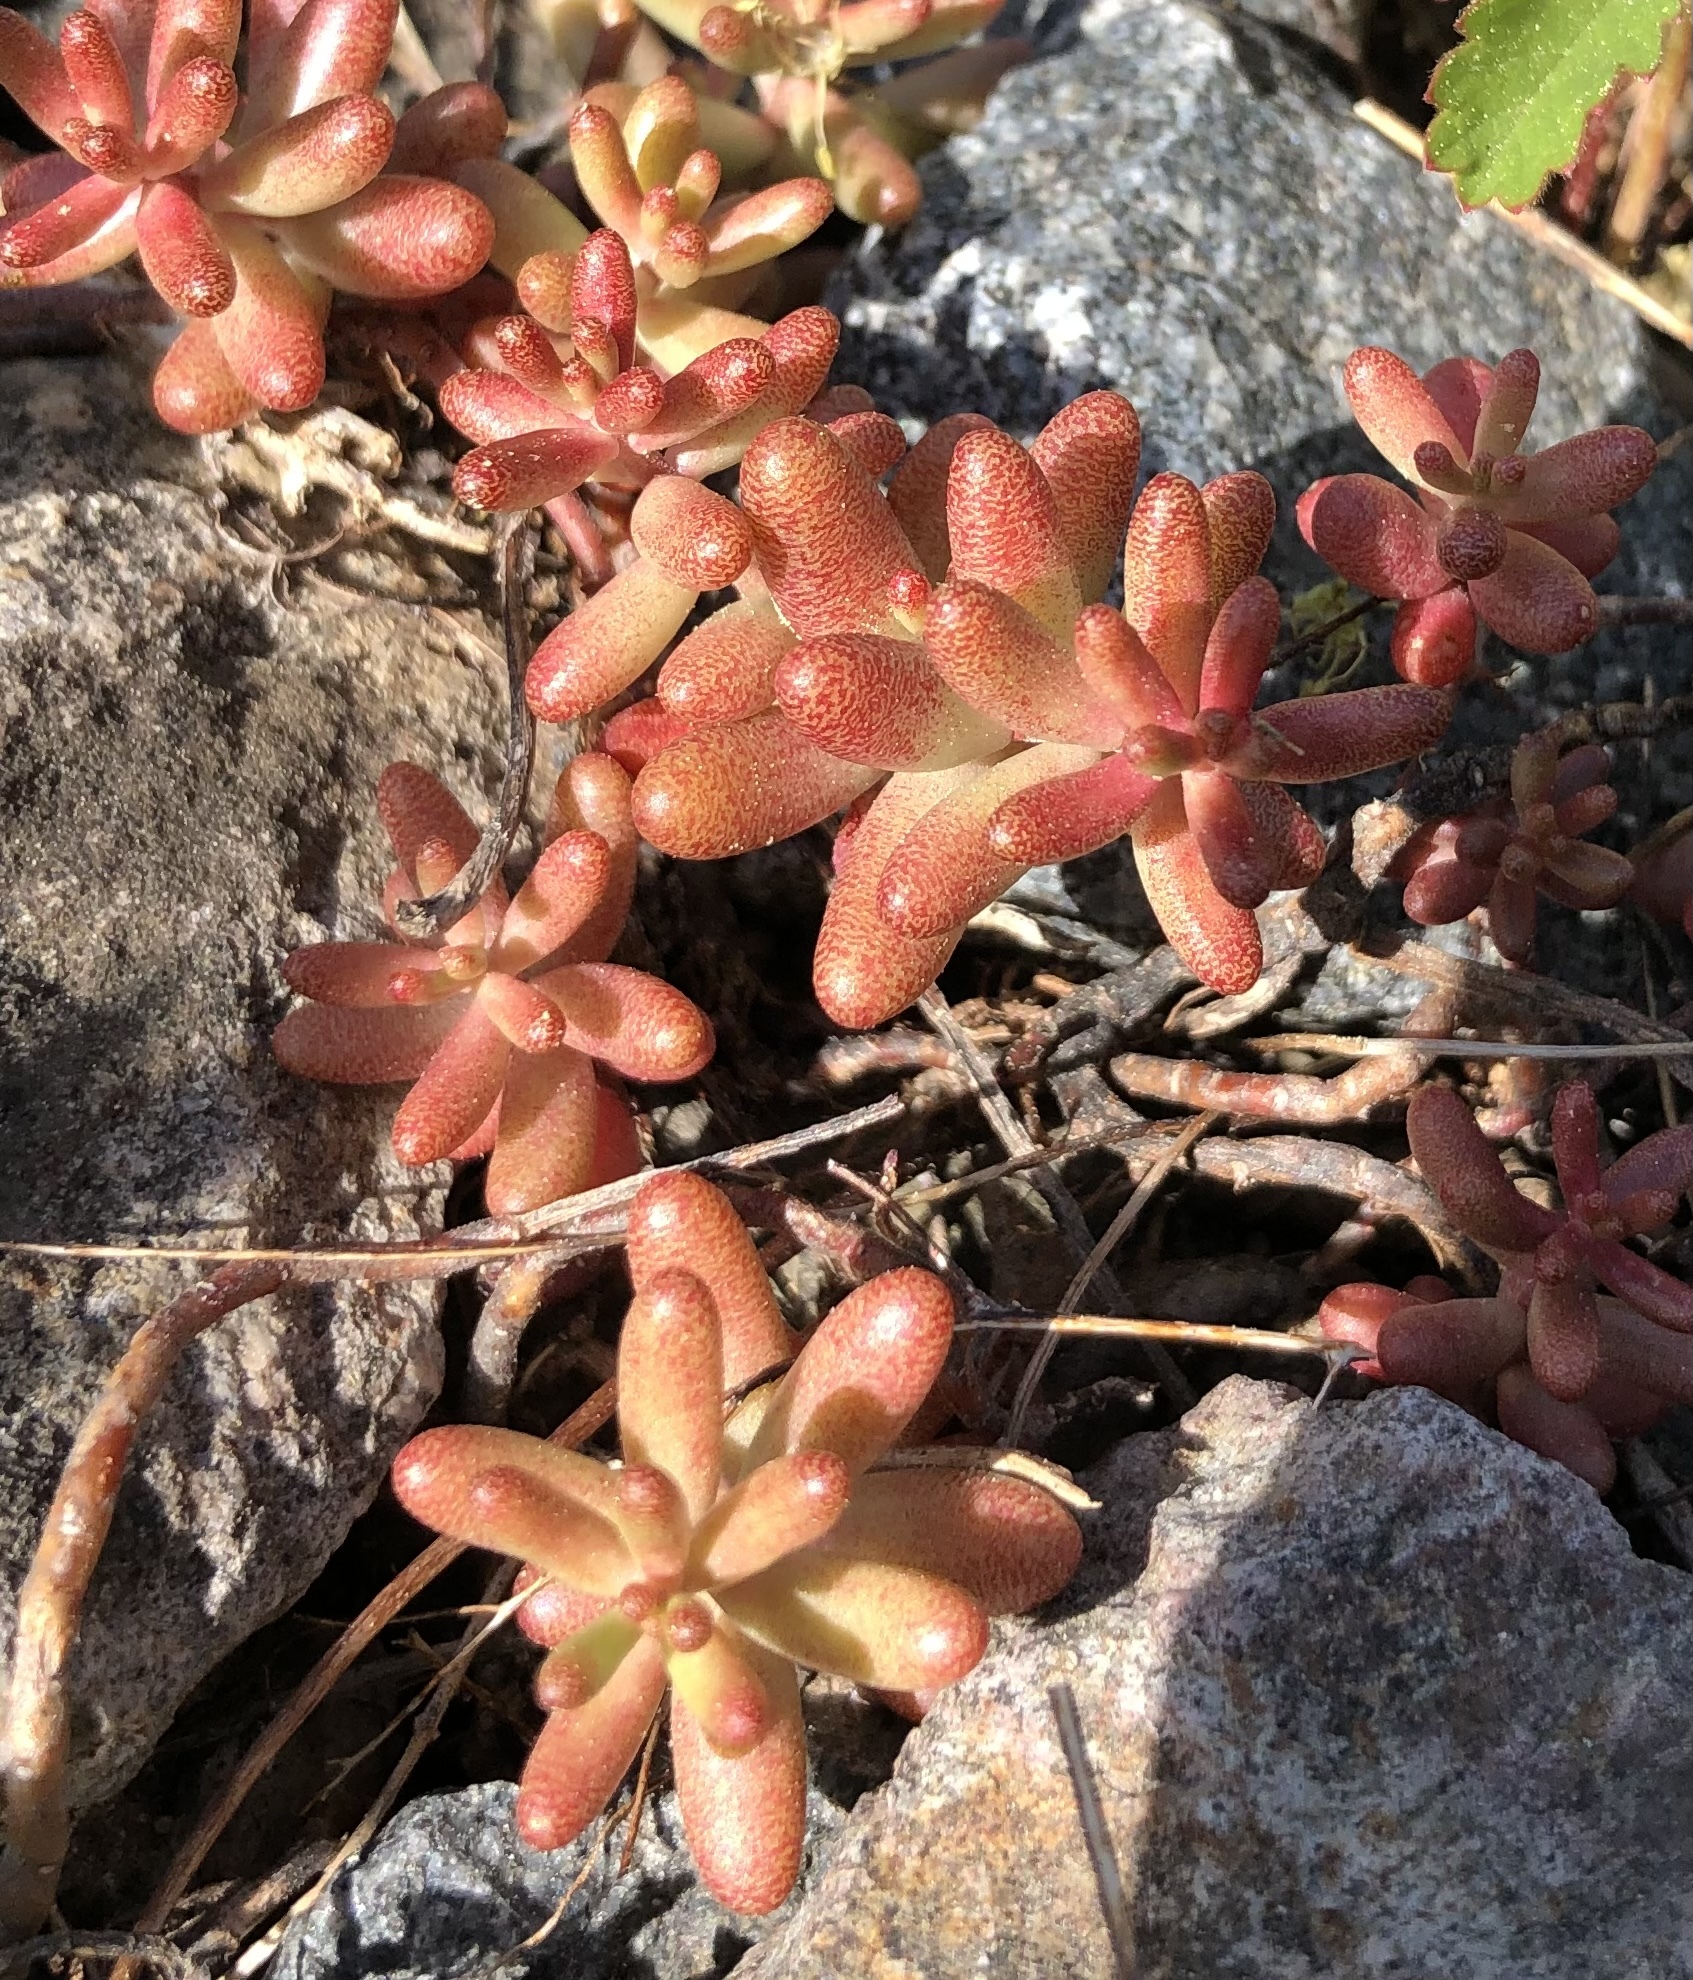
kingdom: Plantae
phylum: Tracheophyta
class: Magnoliopsida
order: Saxifragales
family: Crassulaceae
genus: Sedum
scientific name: Sedum album
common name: White stonecrop
